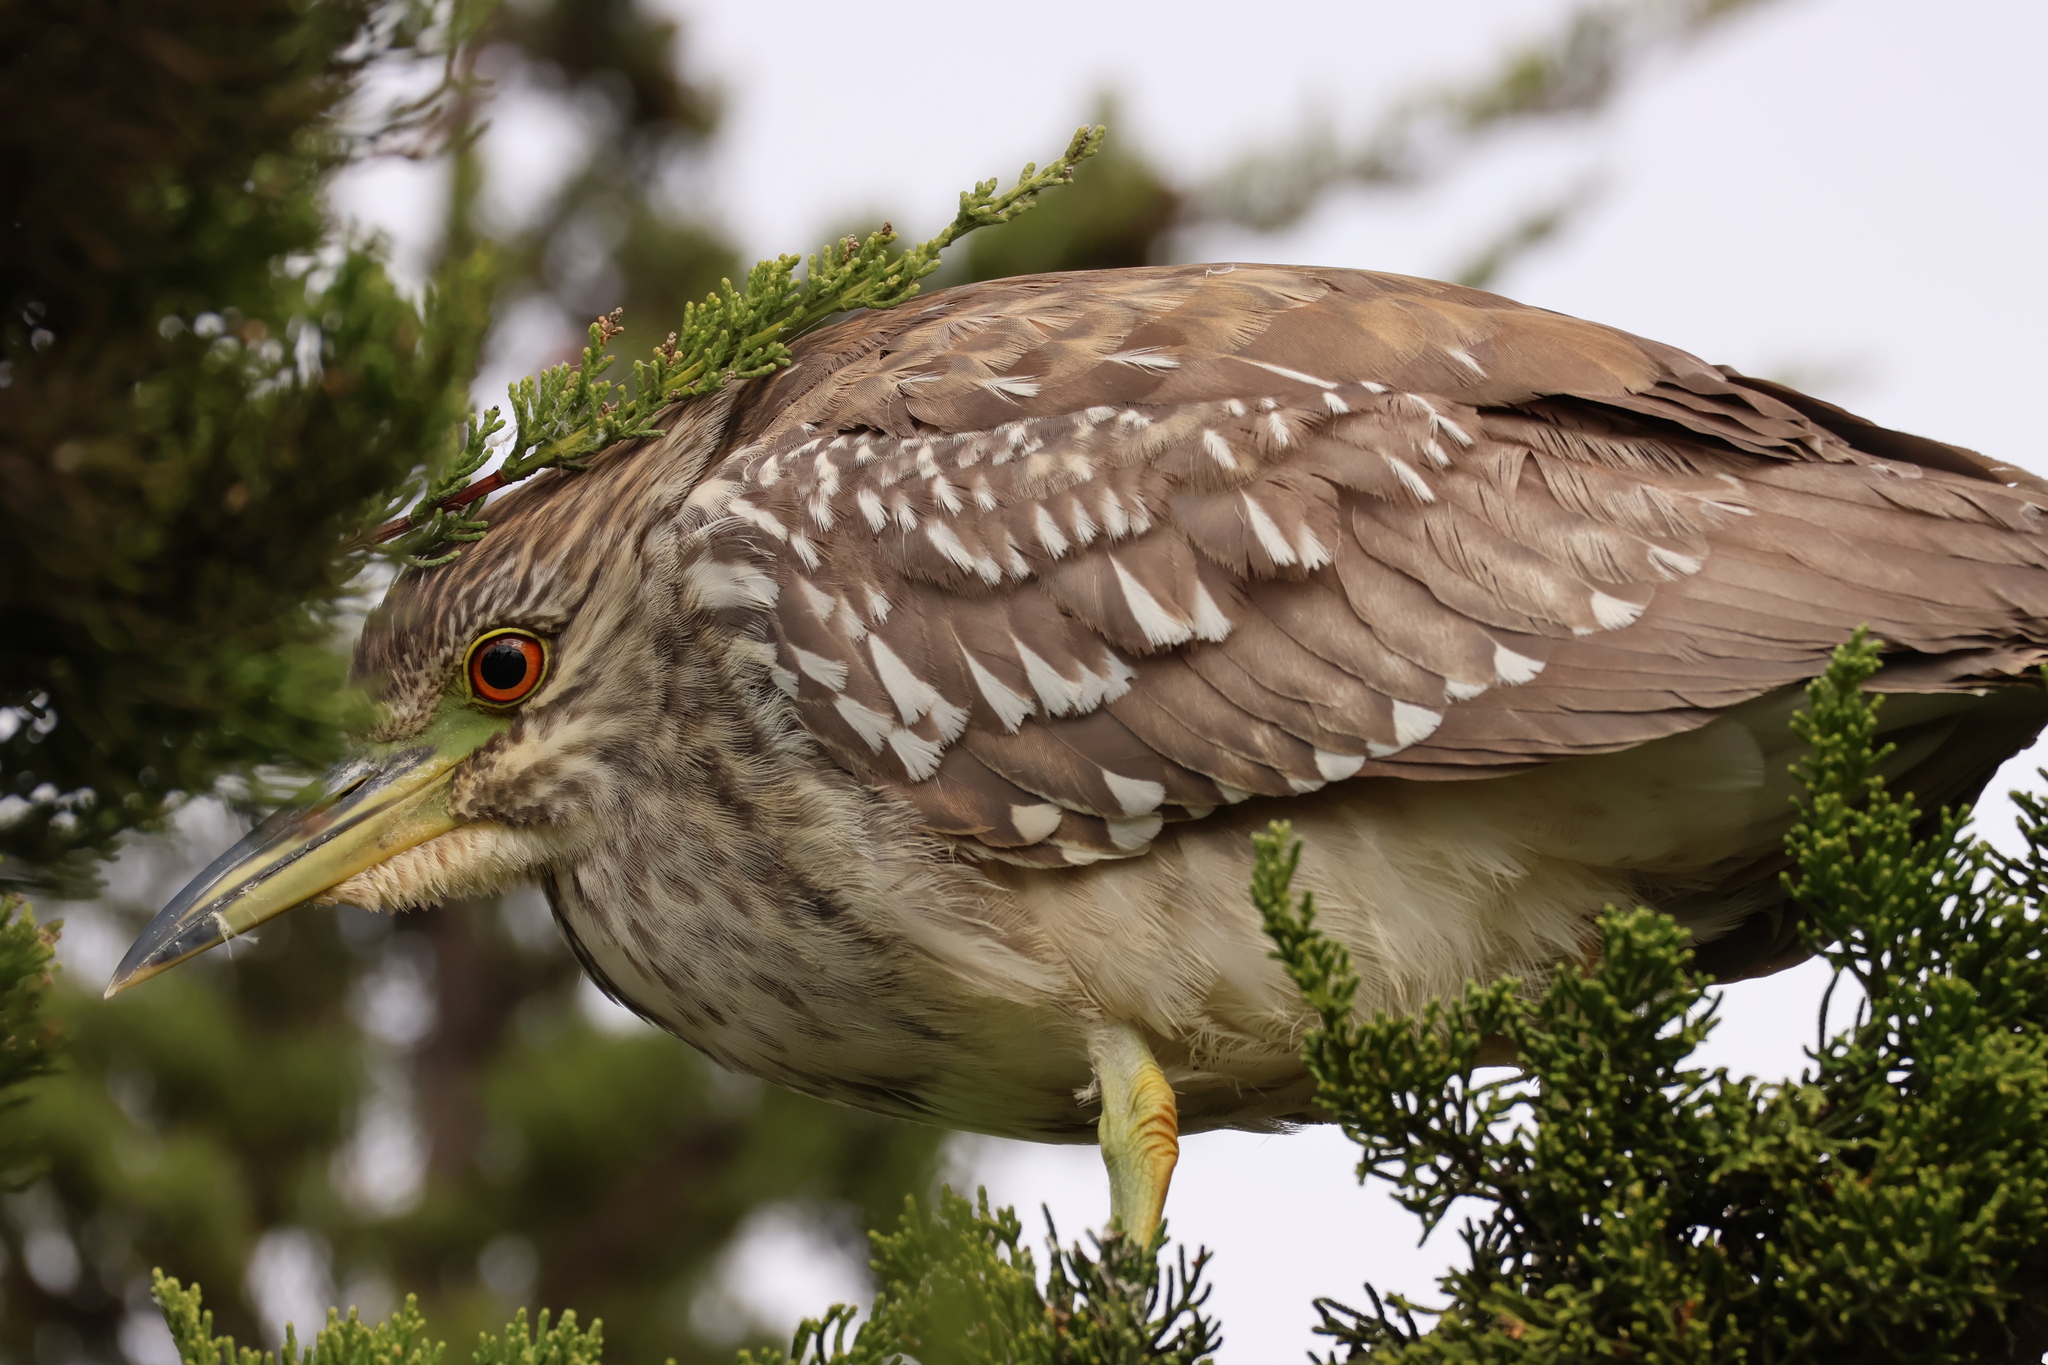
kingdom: Animalia
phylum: Chordata
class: Aves
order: Pelecaniformes
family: Ardeidae
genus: Nycticorax
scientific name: Nycticorax nycticorax
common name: Black-crowned night heron
